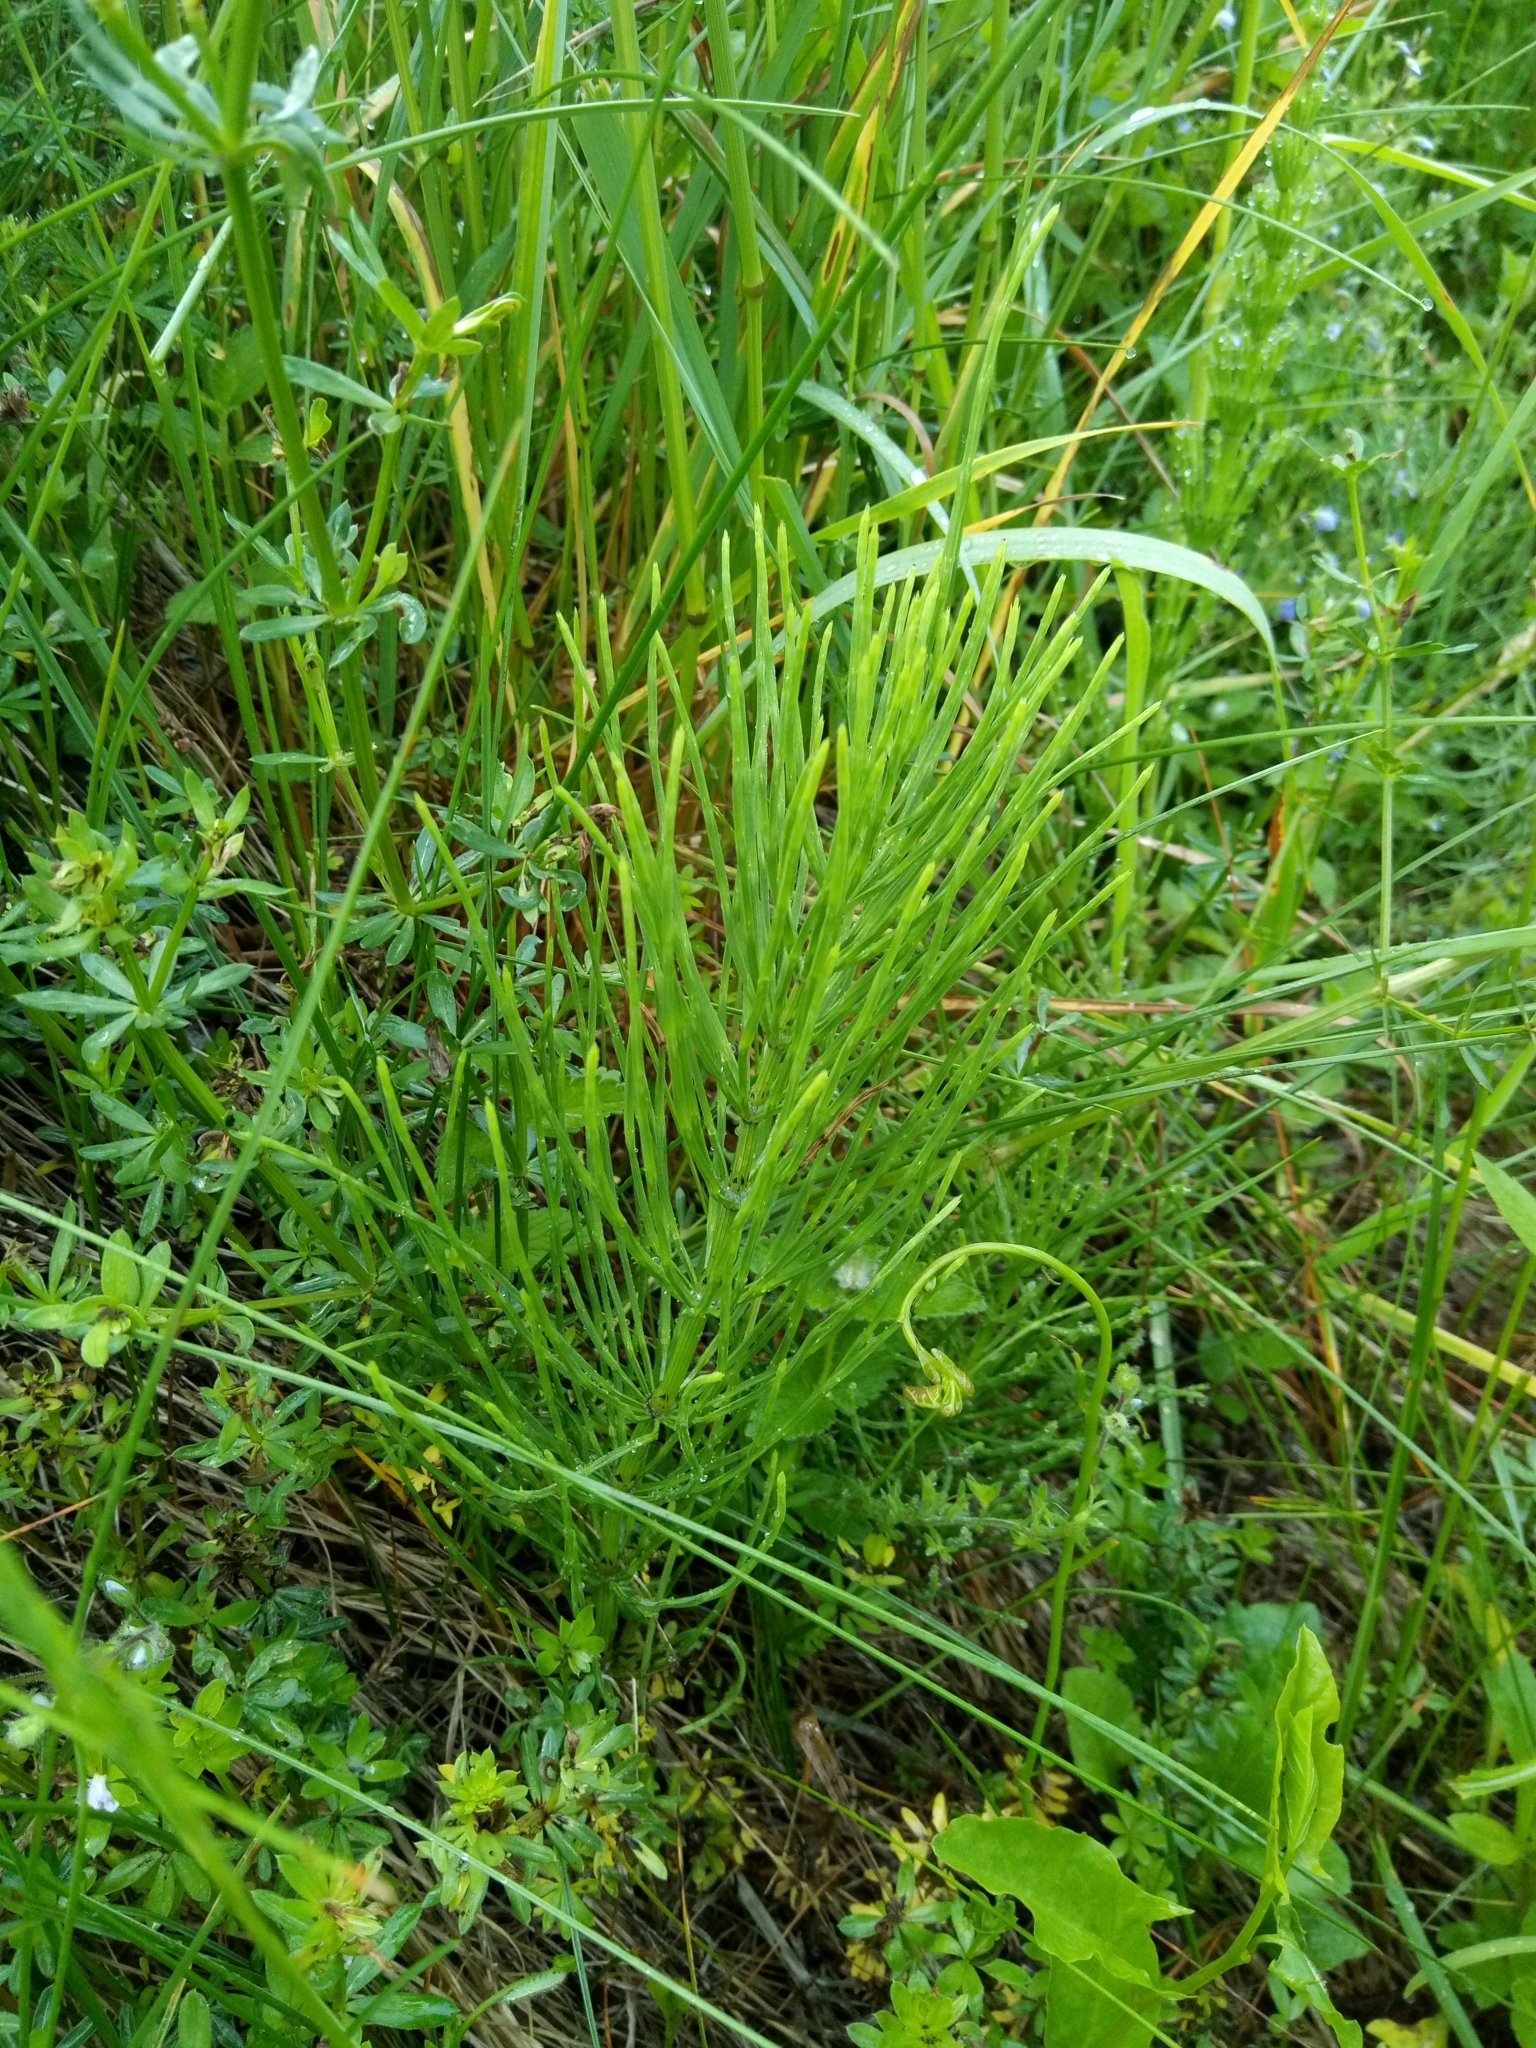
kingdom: Plantae
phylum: Tracheophyta
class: Polypodiopsida
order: Equisetales
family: Equisetaceae
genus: Equisetum
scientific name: Equisetum arvense
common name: Field horsetail
